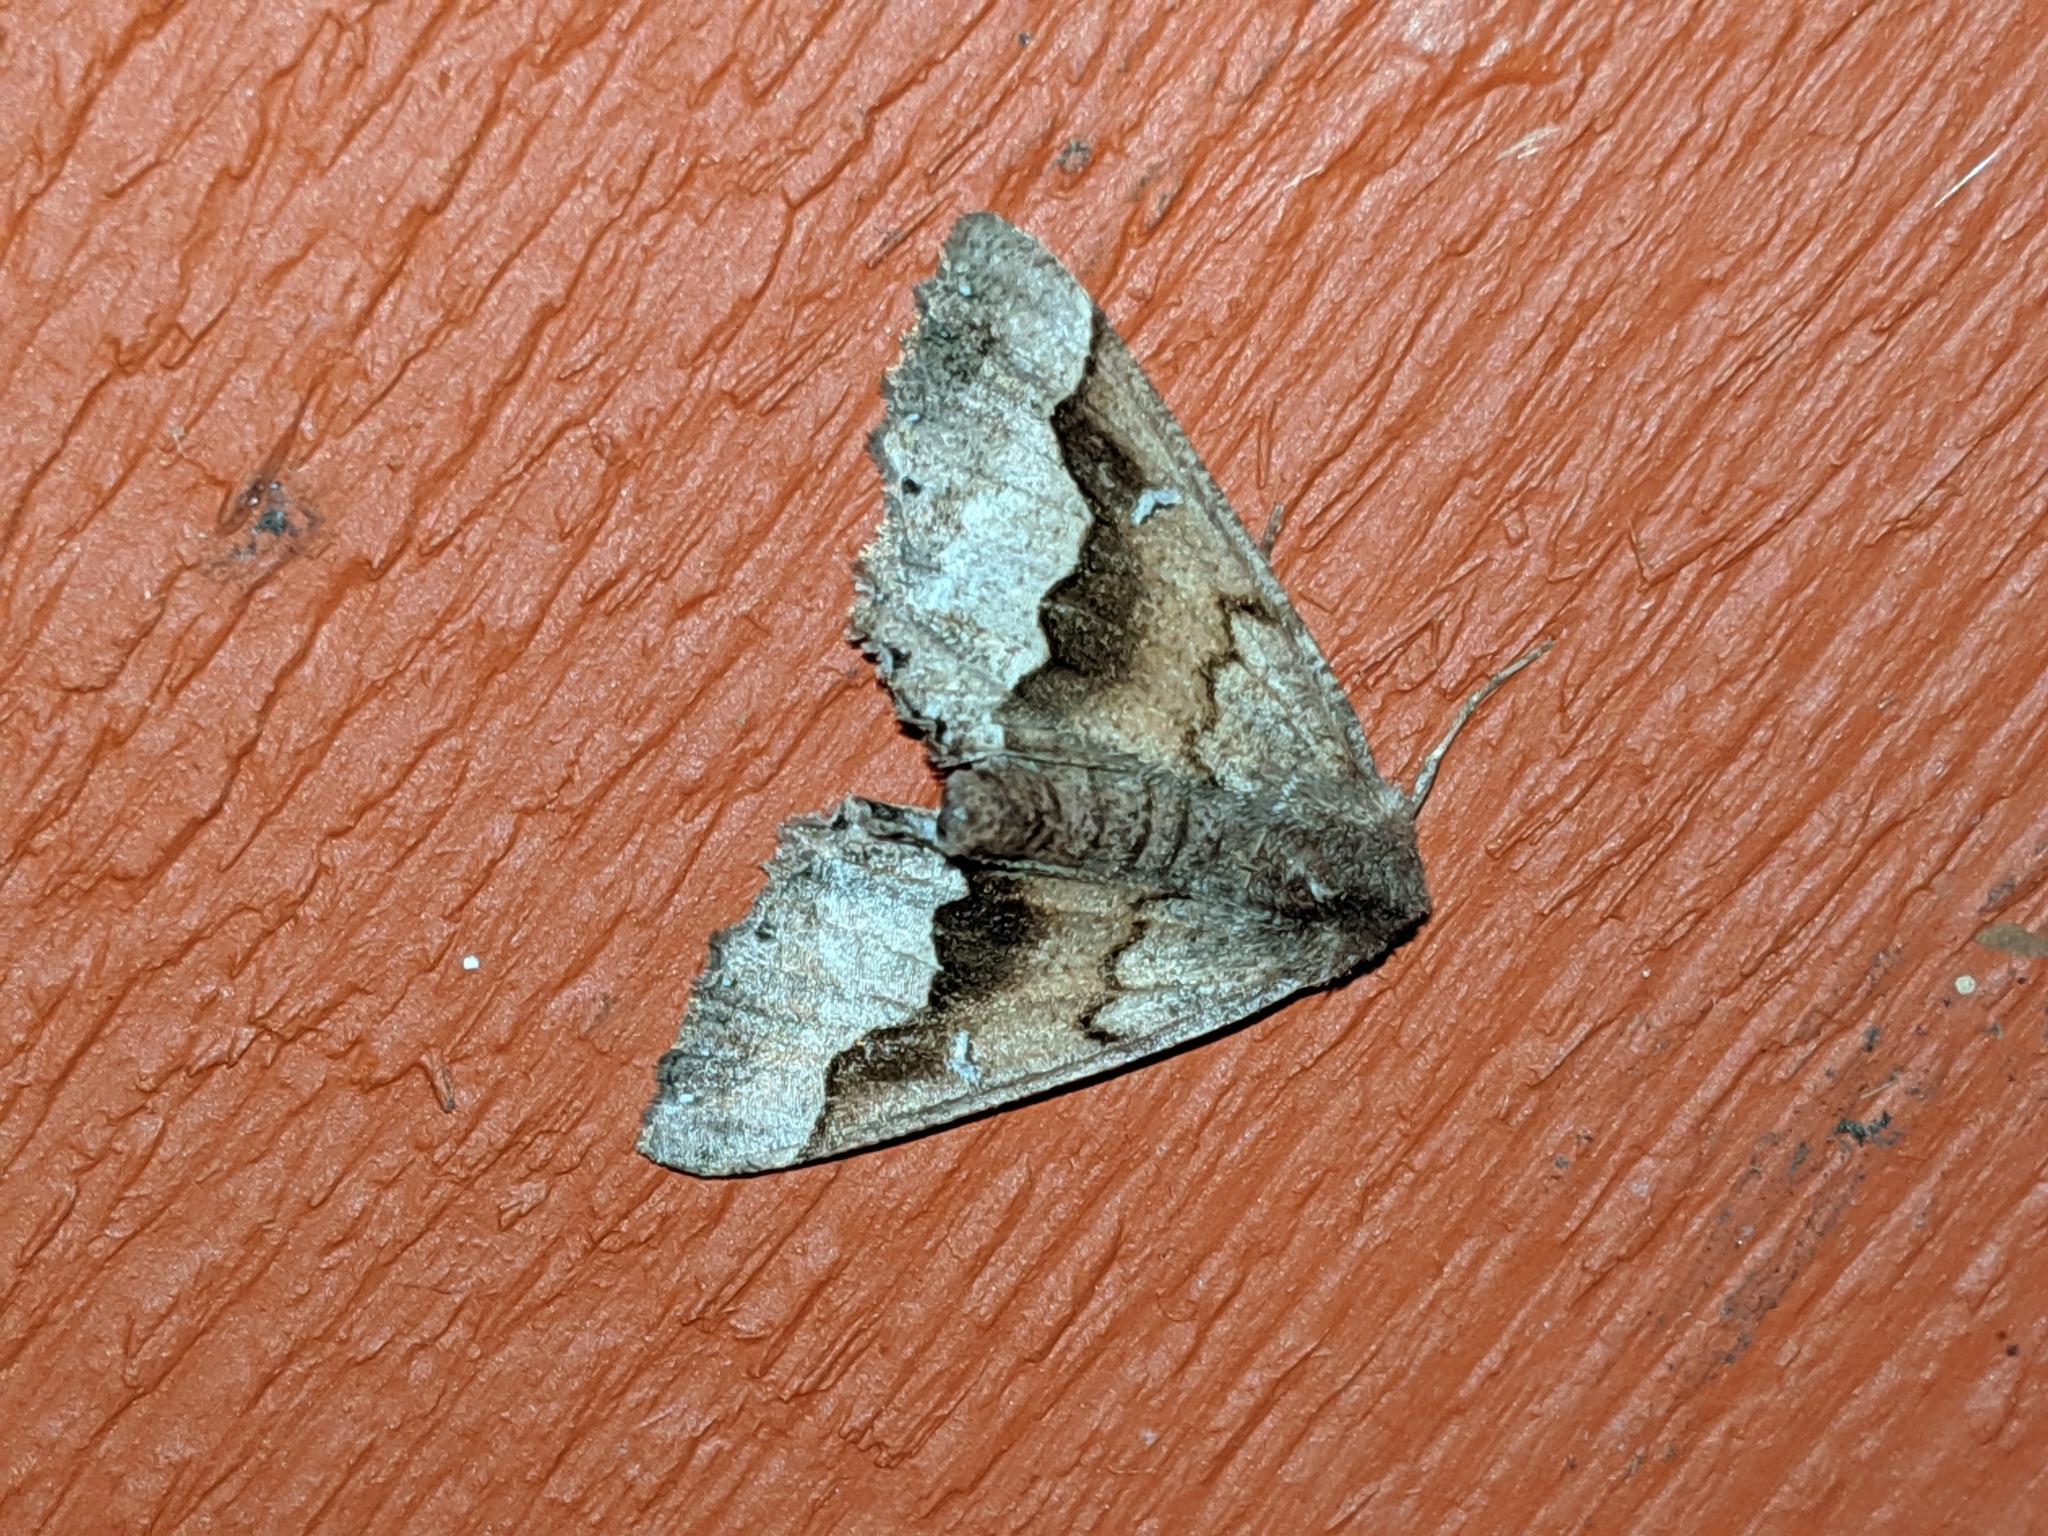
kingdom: Animalia
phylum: Arthropoda
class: Insecta
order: Lepidoptera
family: Geometridae
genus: Pero
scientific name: Pero behrensaria
